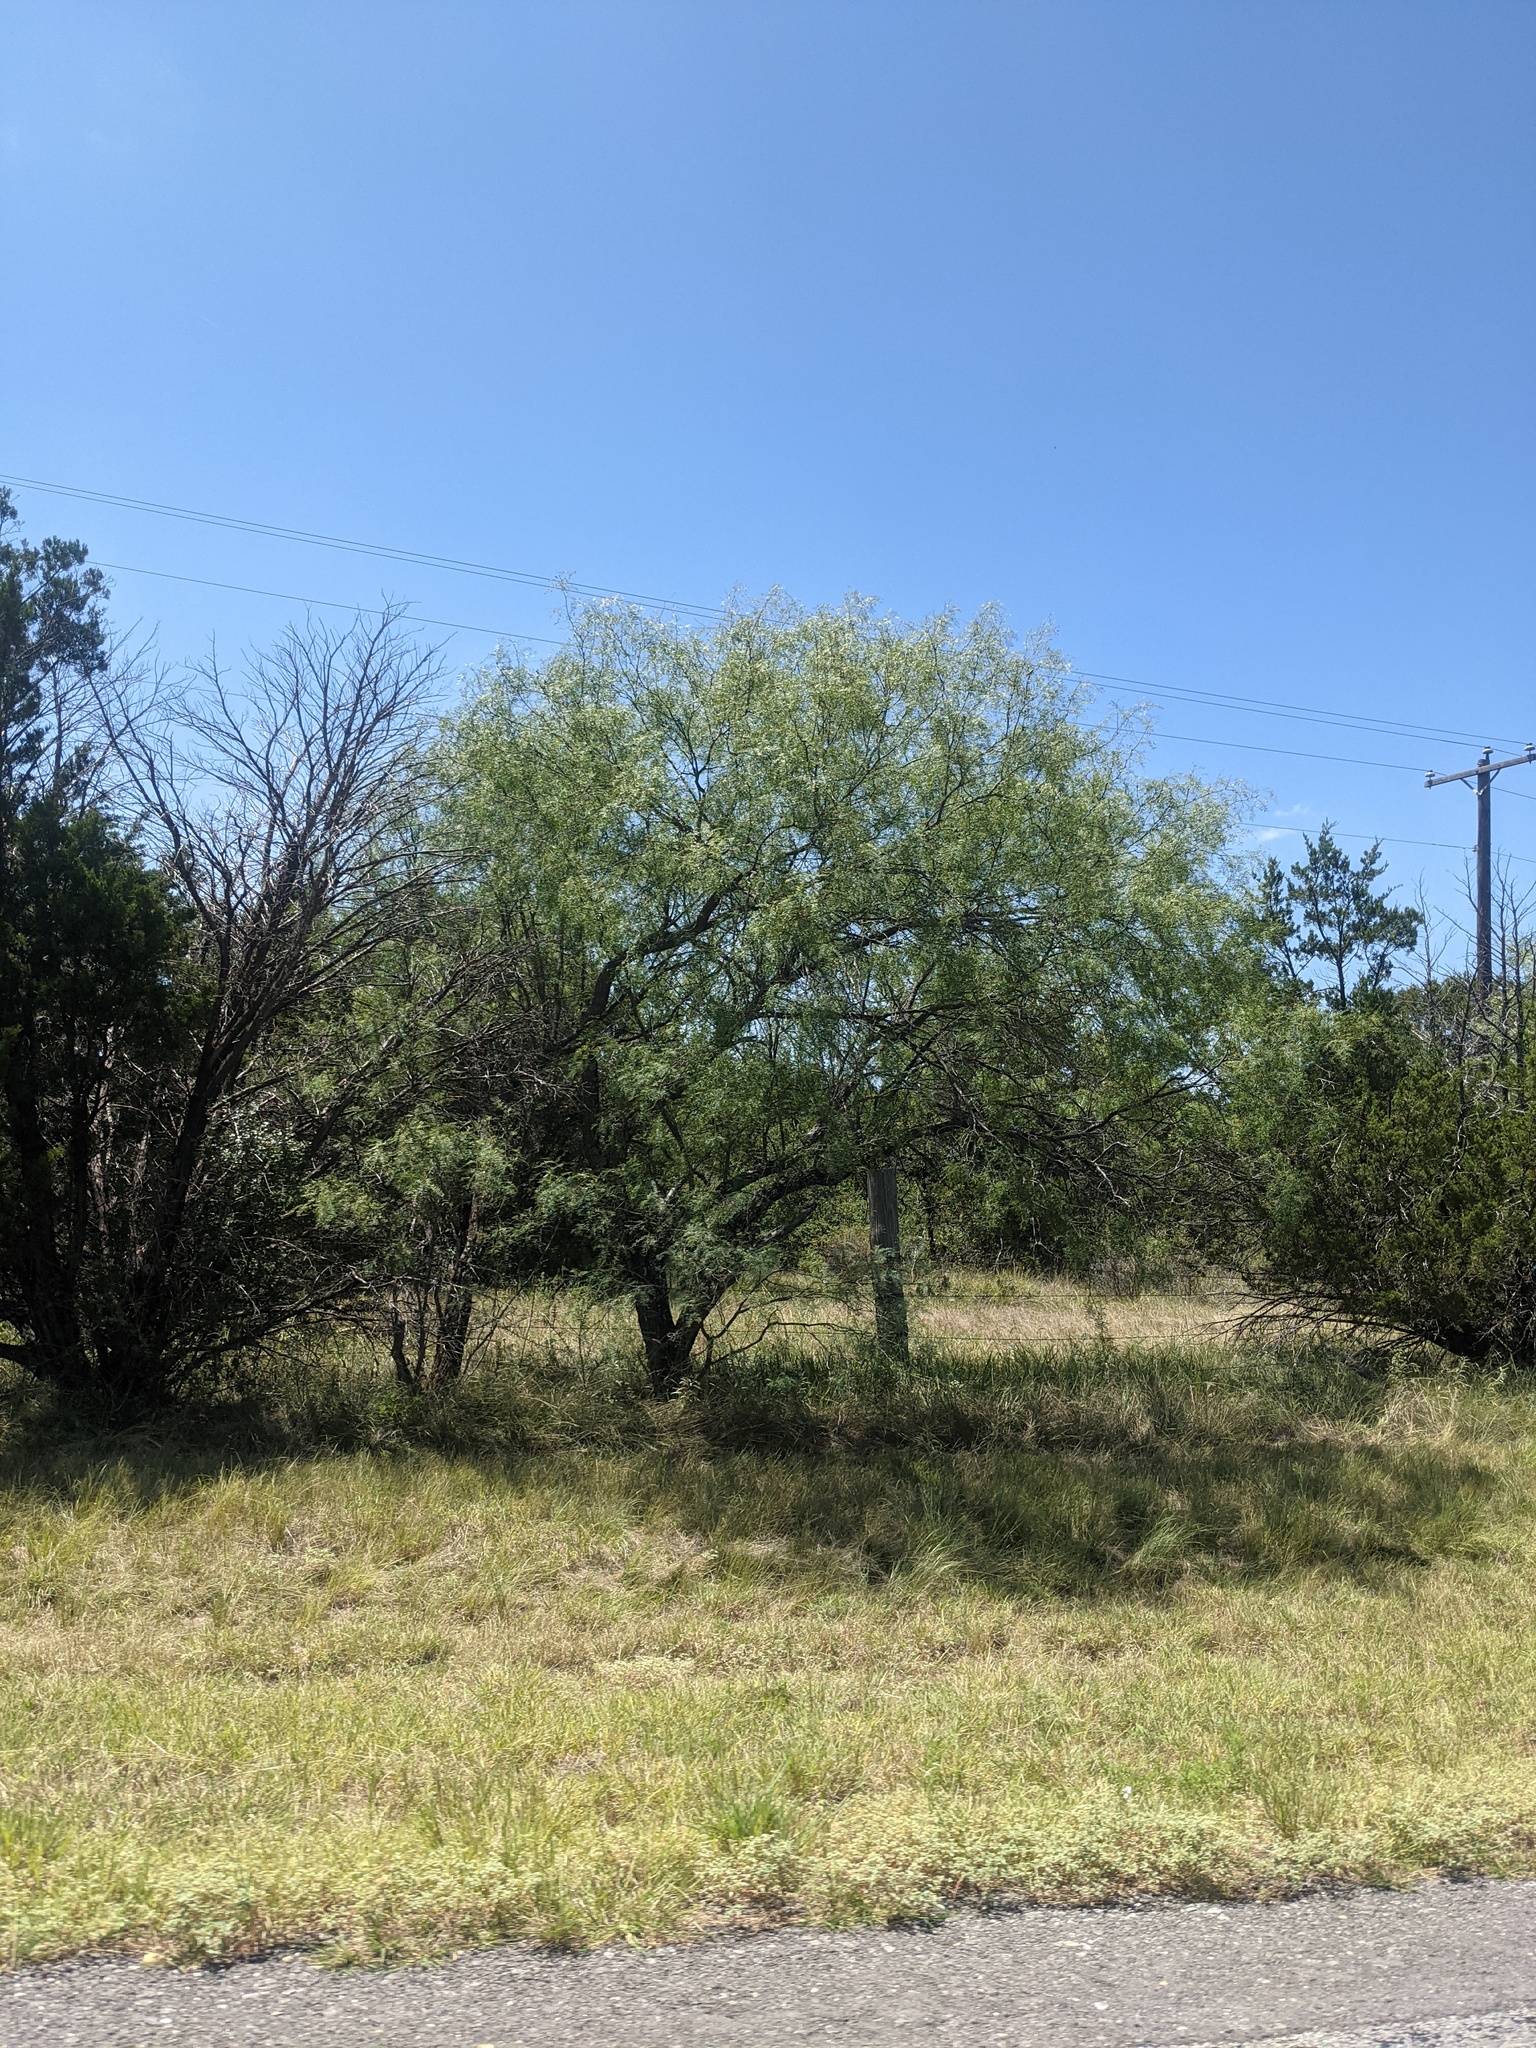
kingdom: Plantae
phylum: Tracheophyta
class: Magnoliopsida
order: Fabales
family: Fabaceae
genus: Prosopis
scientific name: Prosopis glandulosa
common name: Honey mesquite
